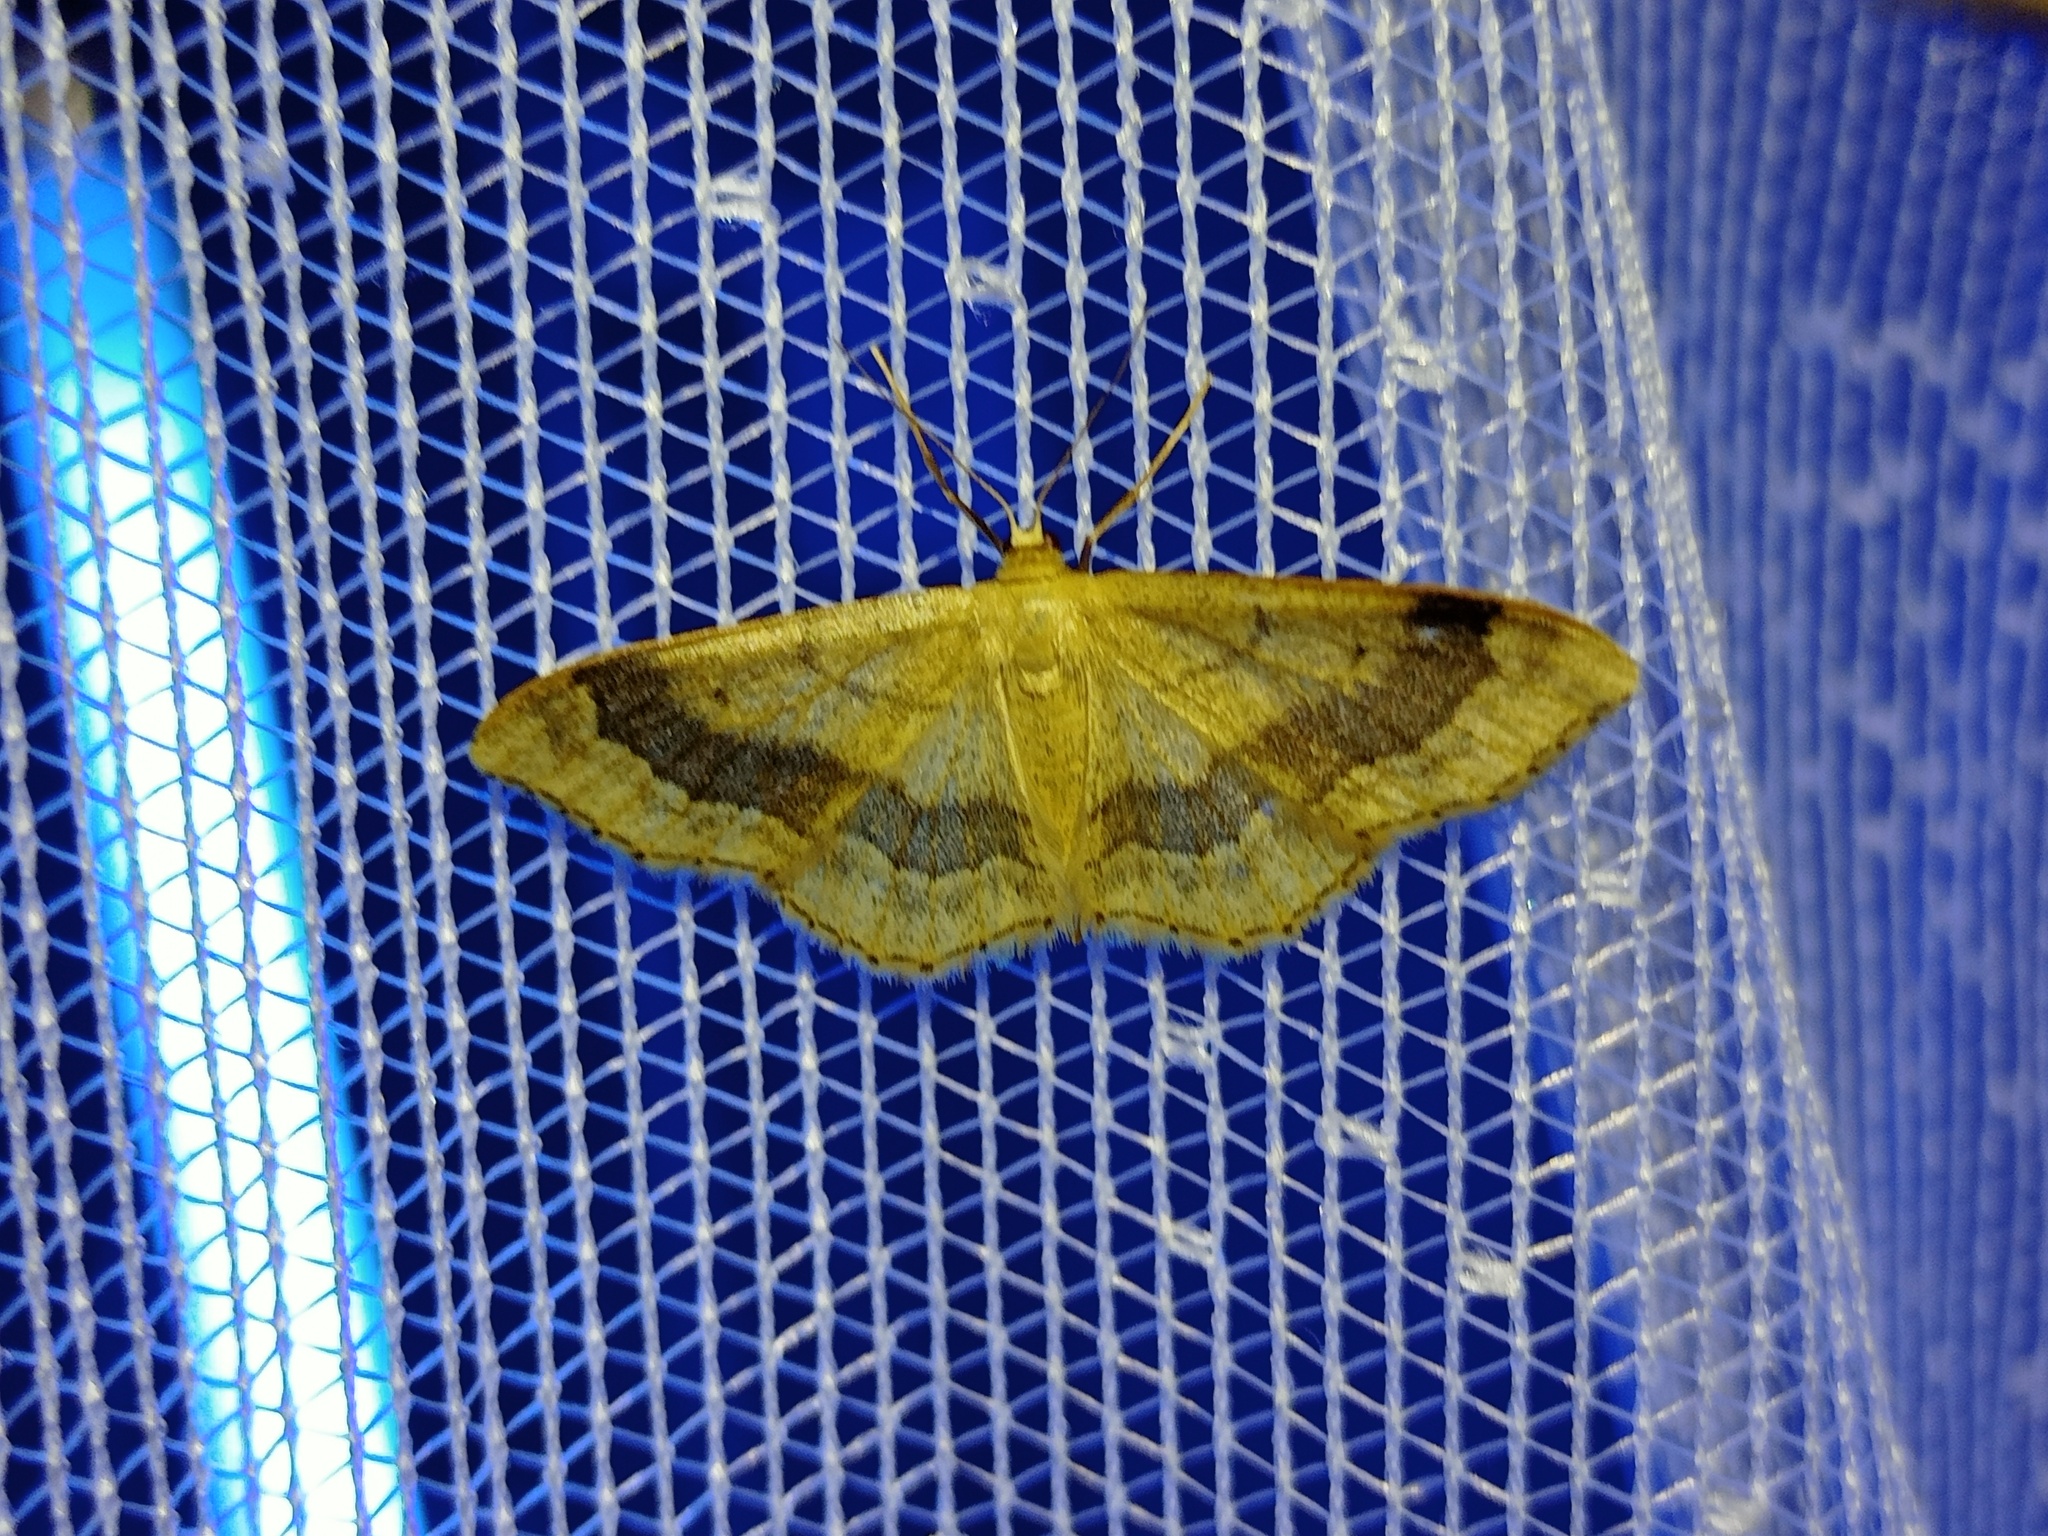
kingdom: Animalia
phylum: Arthropoda
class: Insecta
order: Lepidoptera
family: Geometridae
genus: Idaea
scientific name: Idaea aversata
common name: Riband wave
